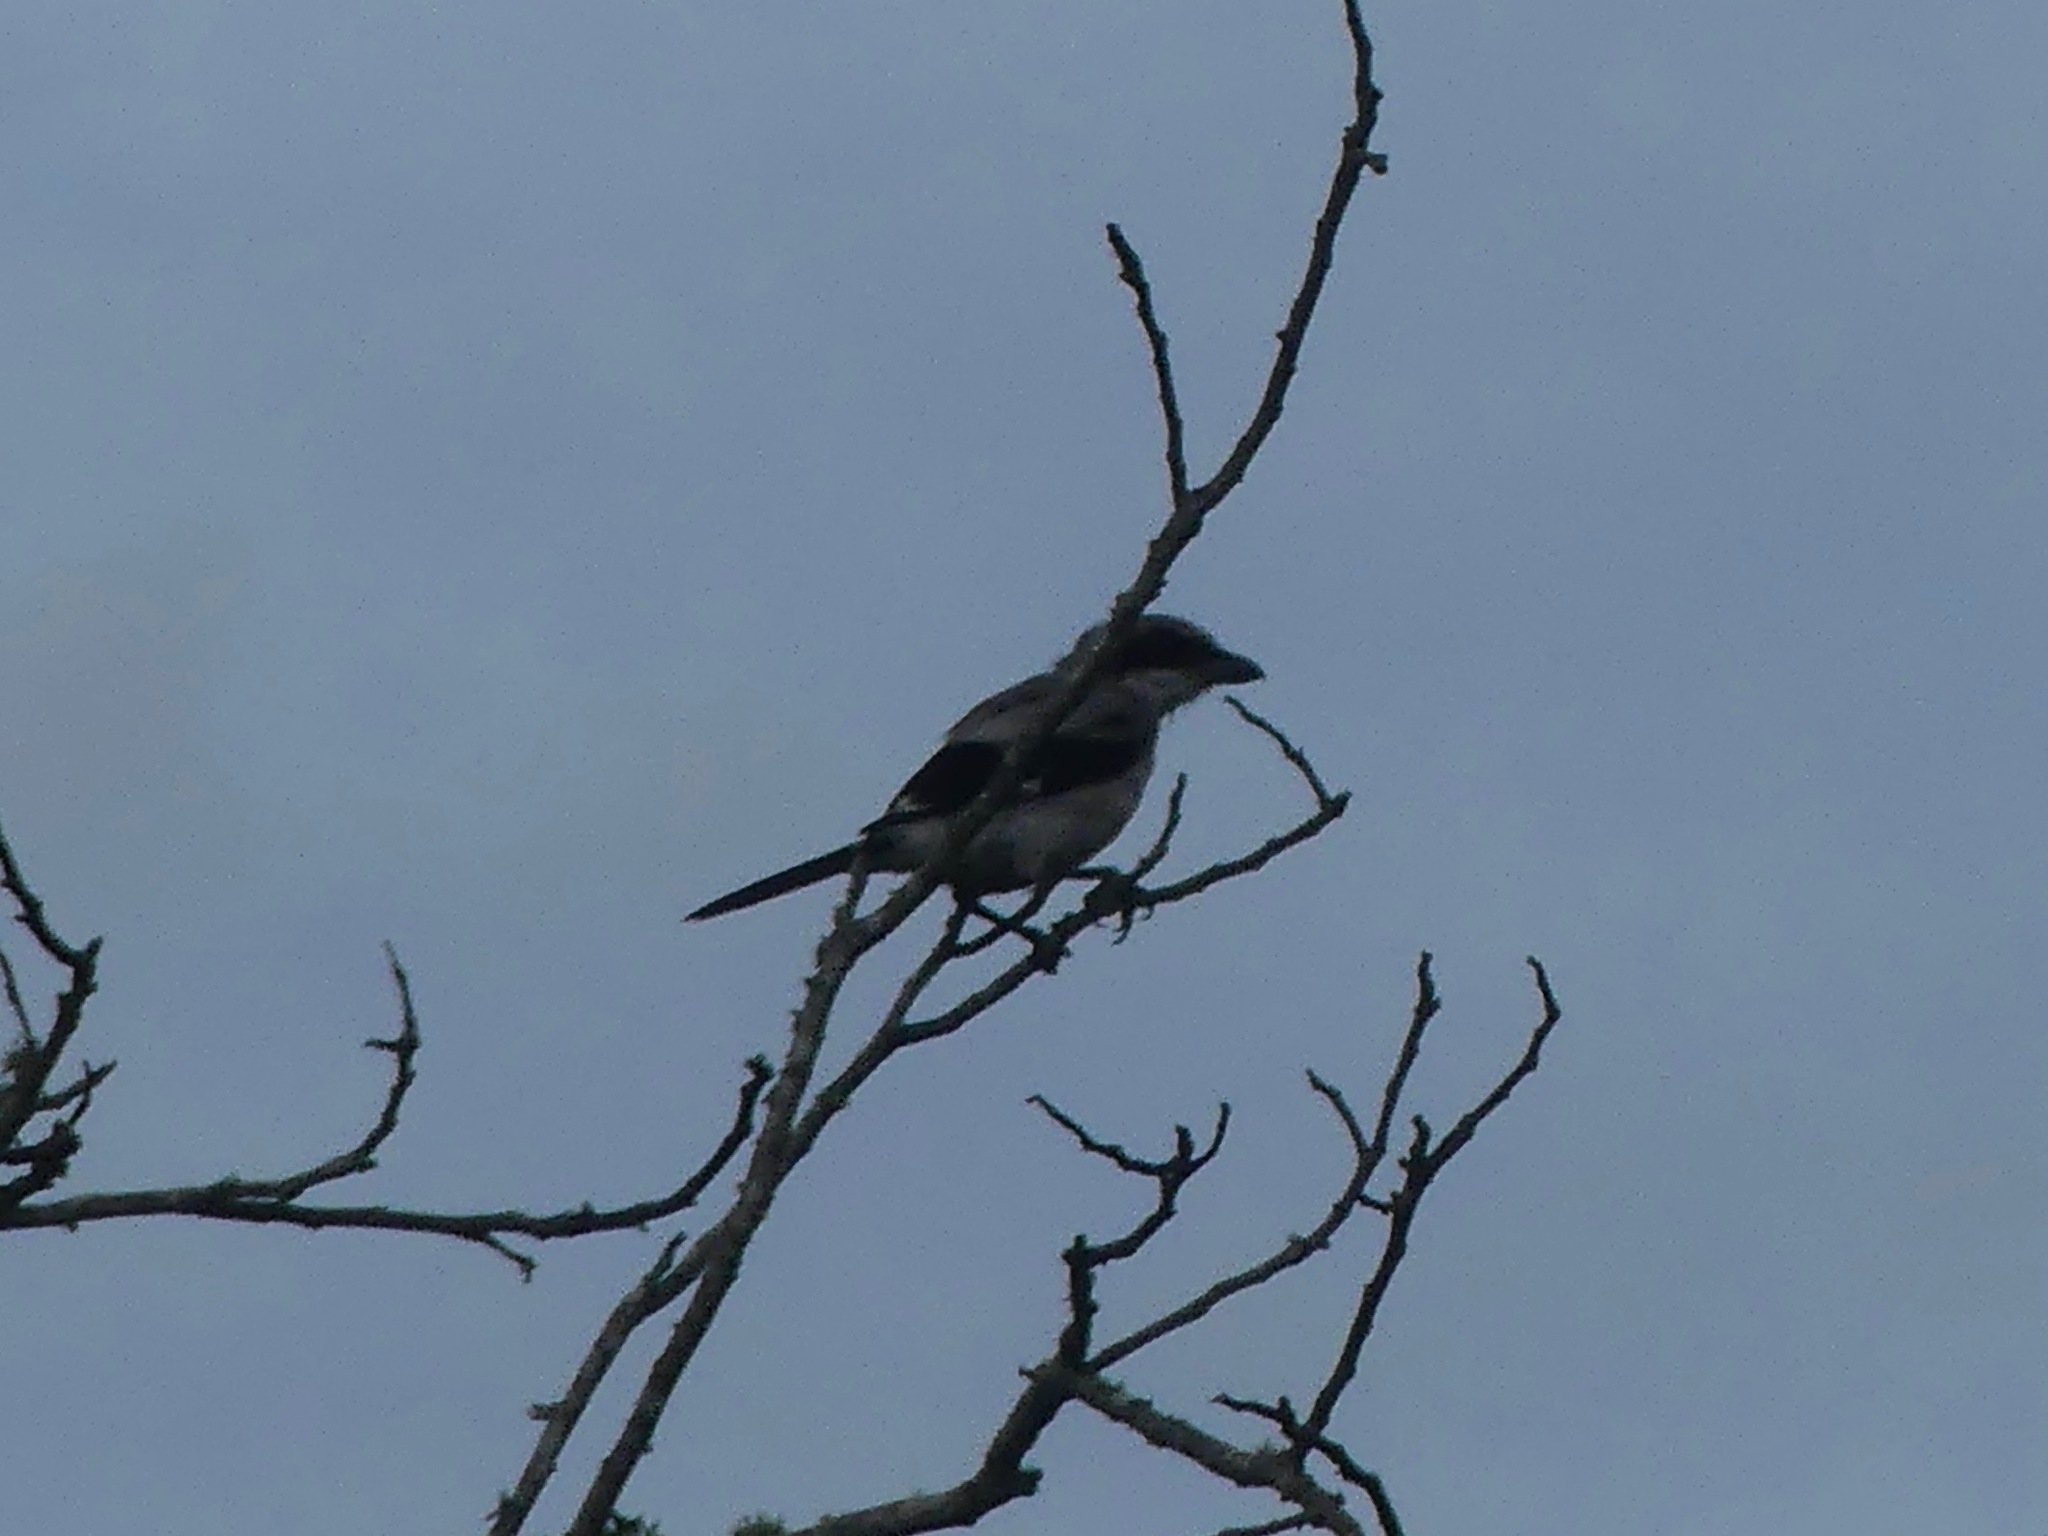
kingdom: Animalia
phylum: Chordata
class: Aves
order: Passeriformes
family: Laniidae
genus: Lanius
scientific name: Lanius ludovicianus
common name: Loggerhead shrike
